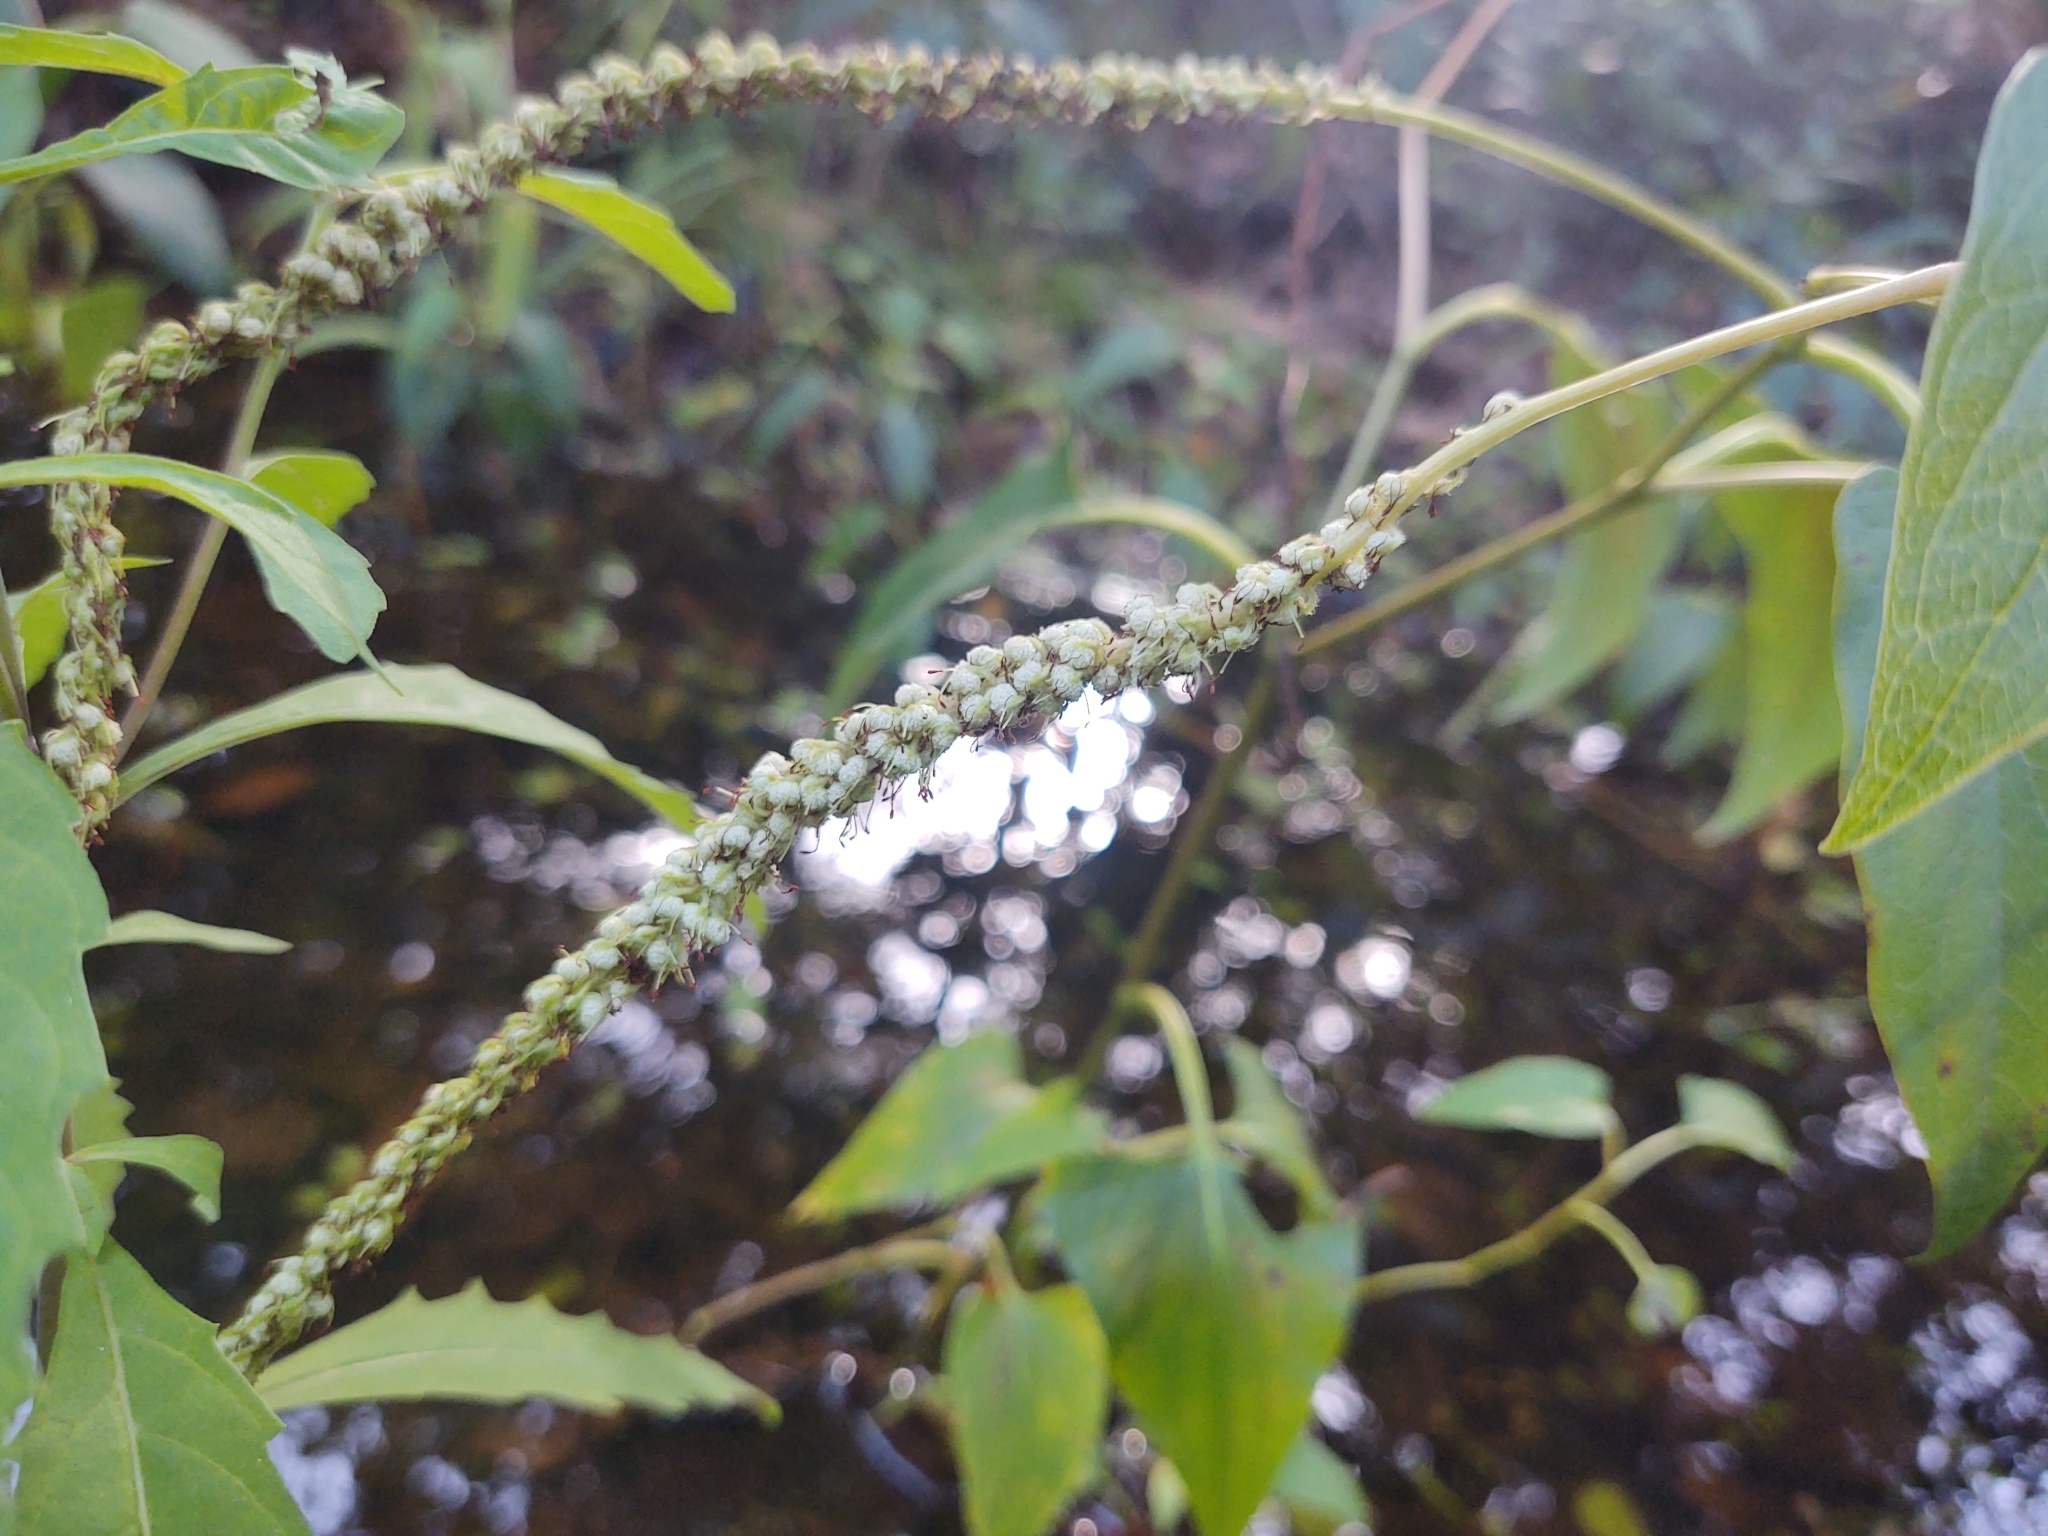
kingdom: Plantae
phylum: Tracheophyta
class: Magnoliopsida
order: Piperales
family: Saururaceae
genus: Saururus
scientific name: Saururus cernuus
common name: Lizard's-tail
